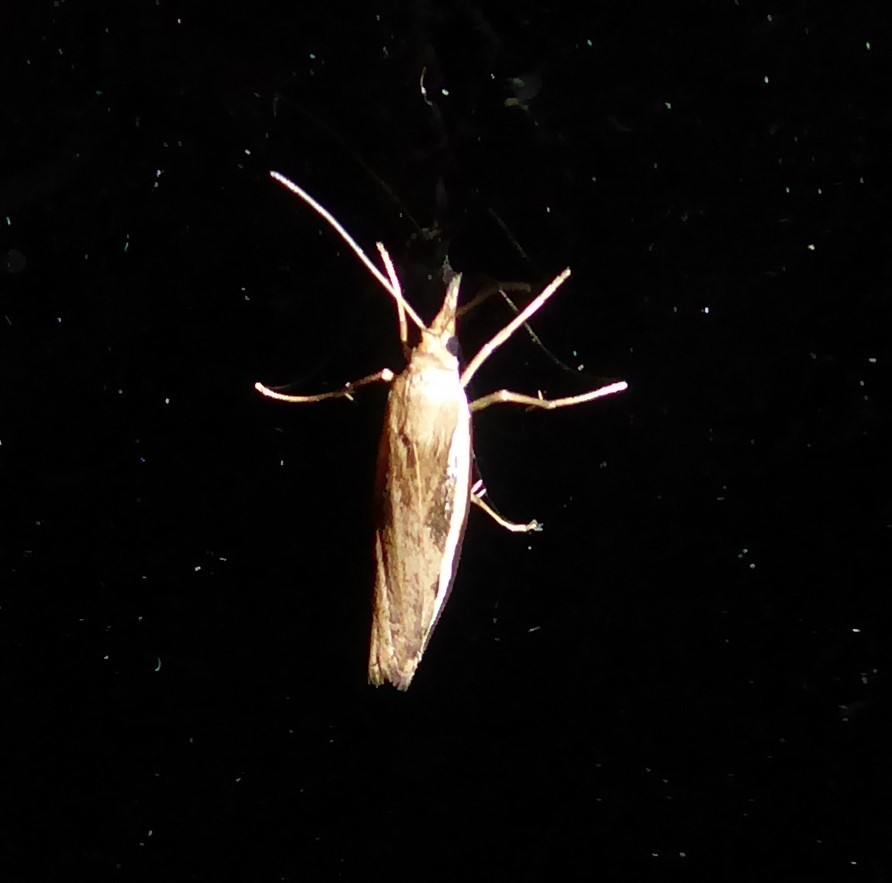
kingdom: Animalia
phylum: Arthropoda
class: Insecta
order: Lepidoptera
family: Crambidae
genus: Orocrambus
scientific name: Orocrambus flexuosellus
